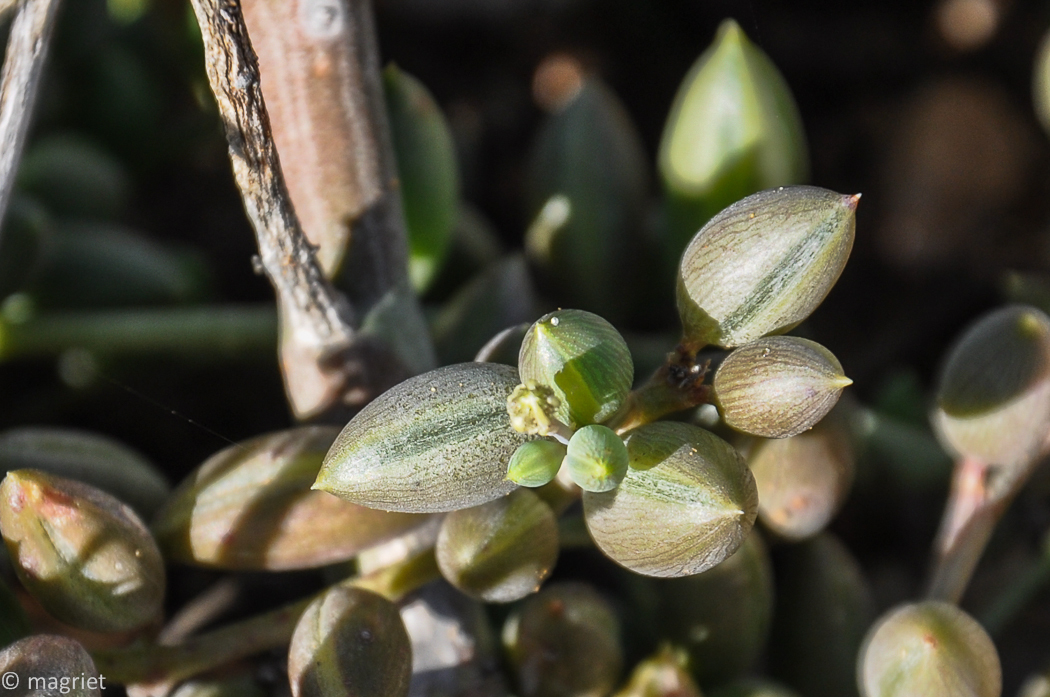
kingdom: Plantae
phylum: Tracheophyta
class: Magnoliopsida
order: Asterales
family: Asteraceae
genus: Curio
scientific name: Curio radicans
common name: Creeping-berry
